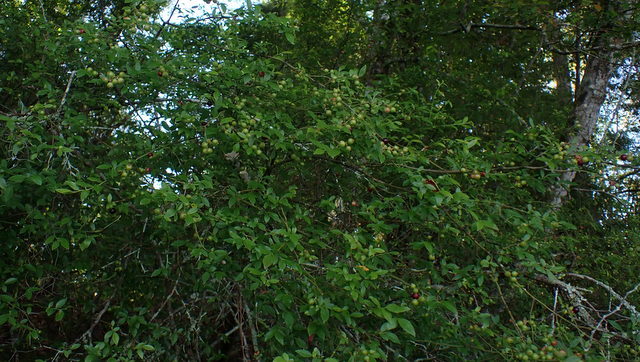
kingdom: Plantae
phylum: Tracheophyta
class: Magnoliopsida
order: Ericales
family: Ericaceae
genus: Vaccinium
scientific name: Vaccinium corymbosum
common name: Blueberry
